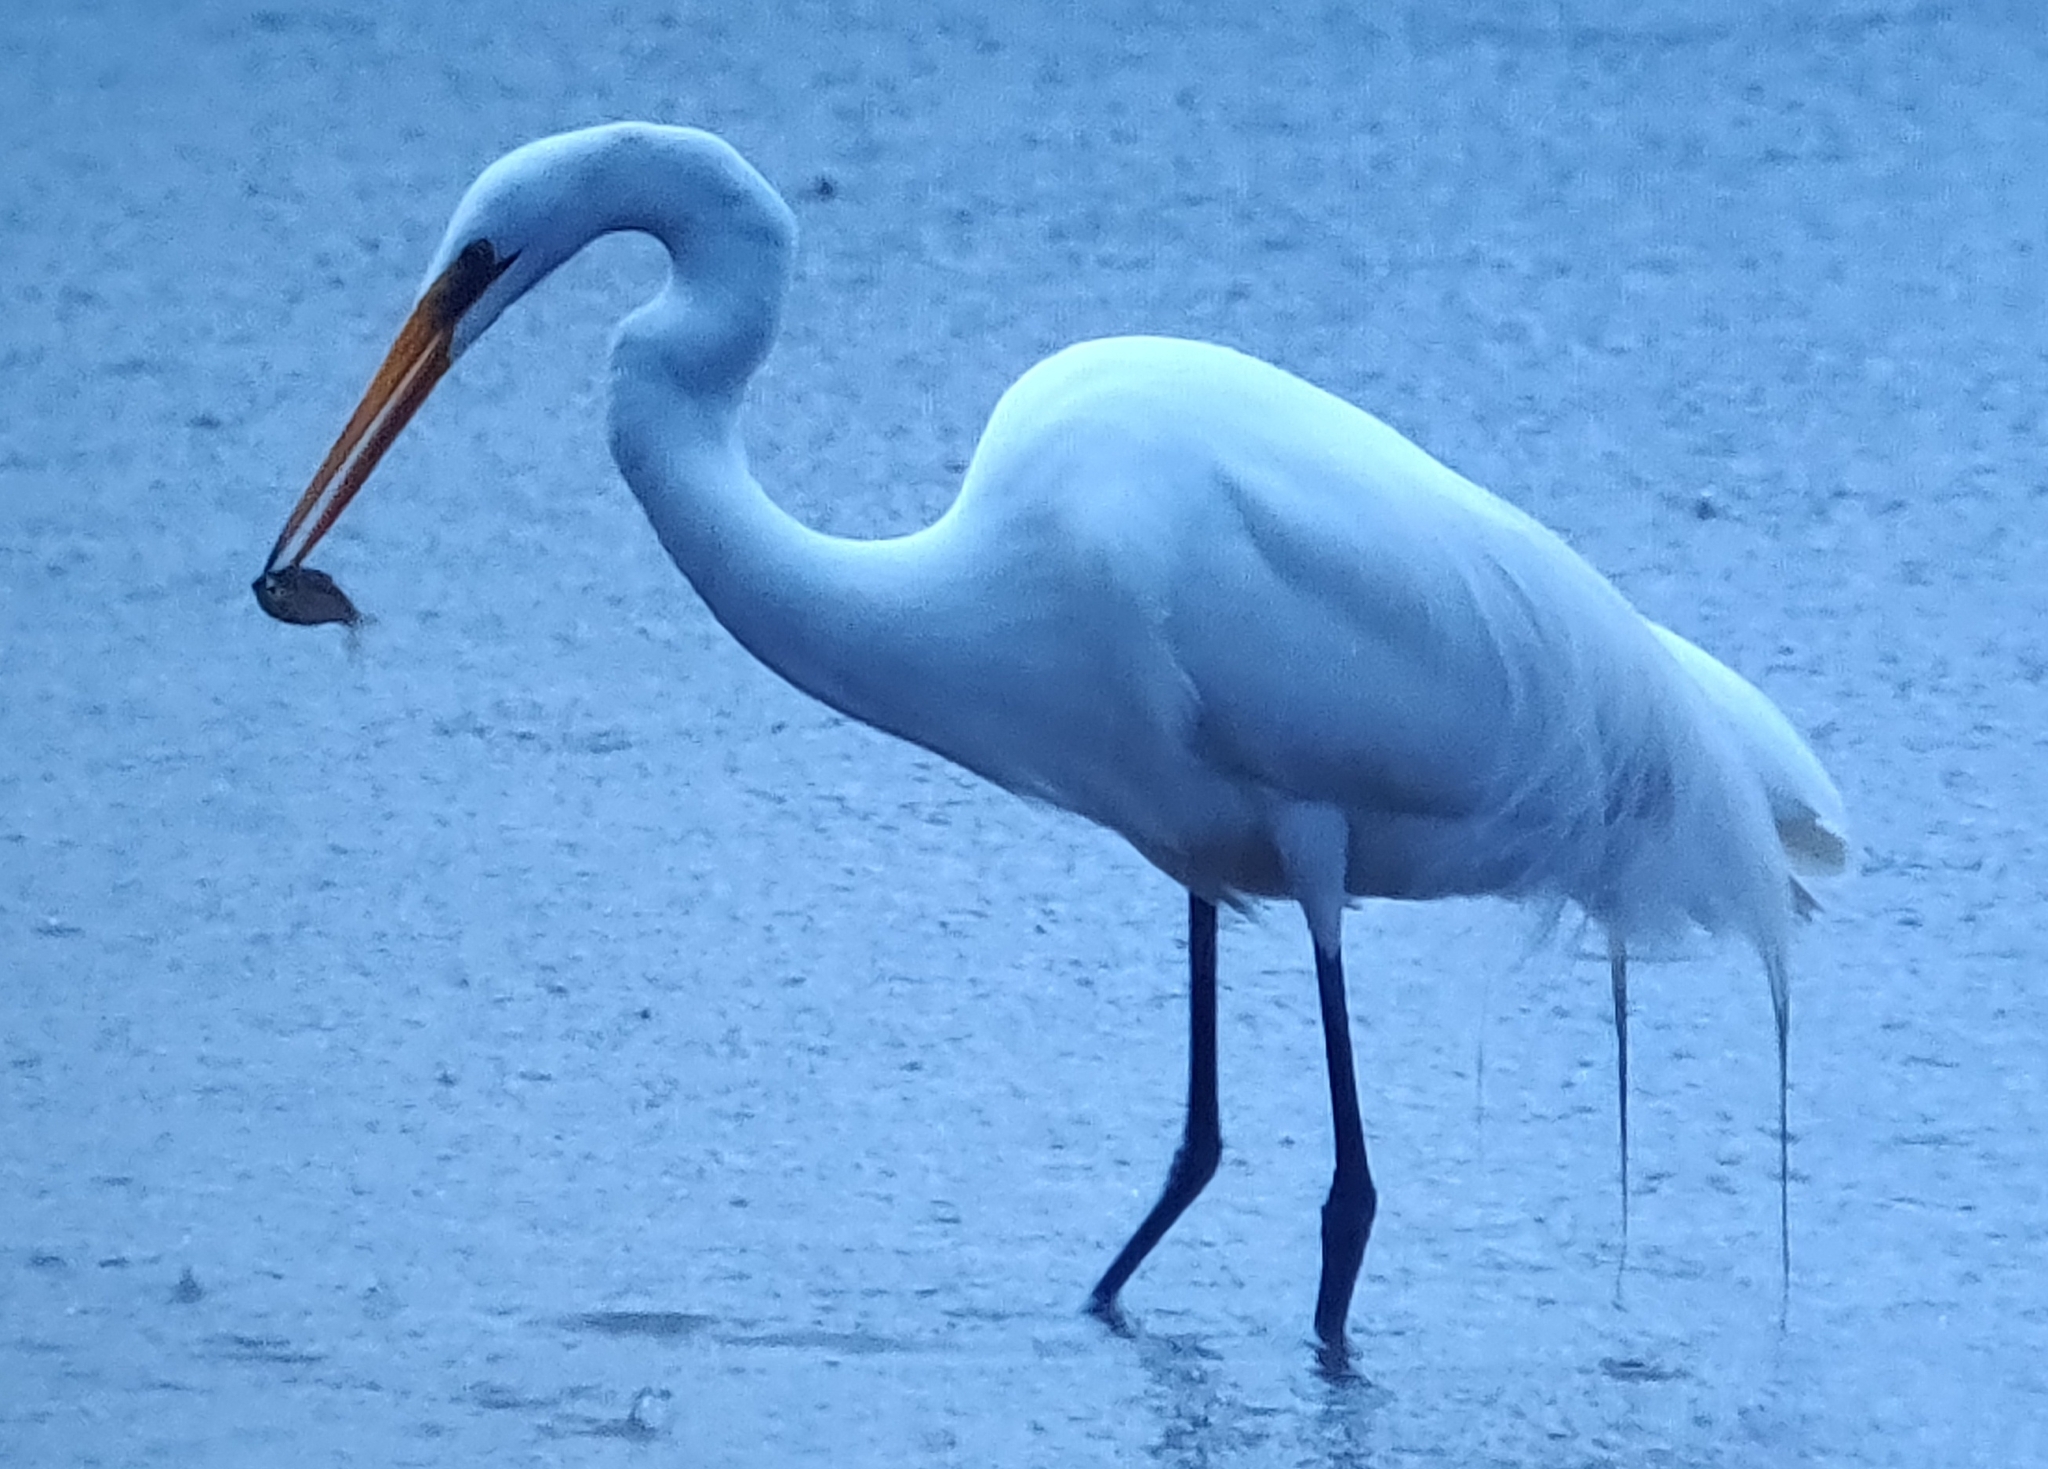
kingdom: Animalia
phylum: Chordata
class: Aves
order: Pelecaniformes
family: Ardeidae
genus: Ardea
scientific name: Ardea alba
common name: Great egret
